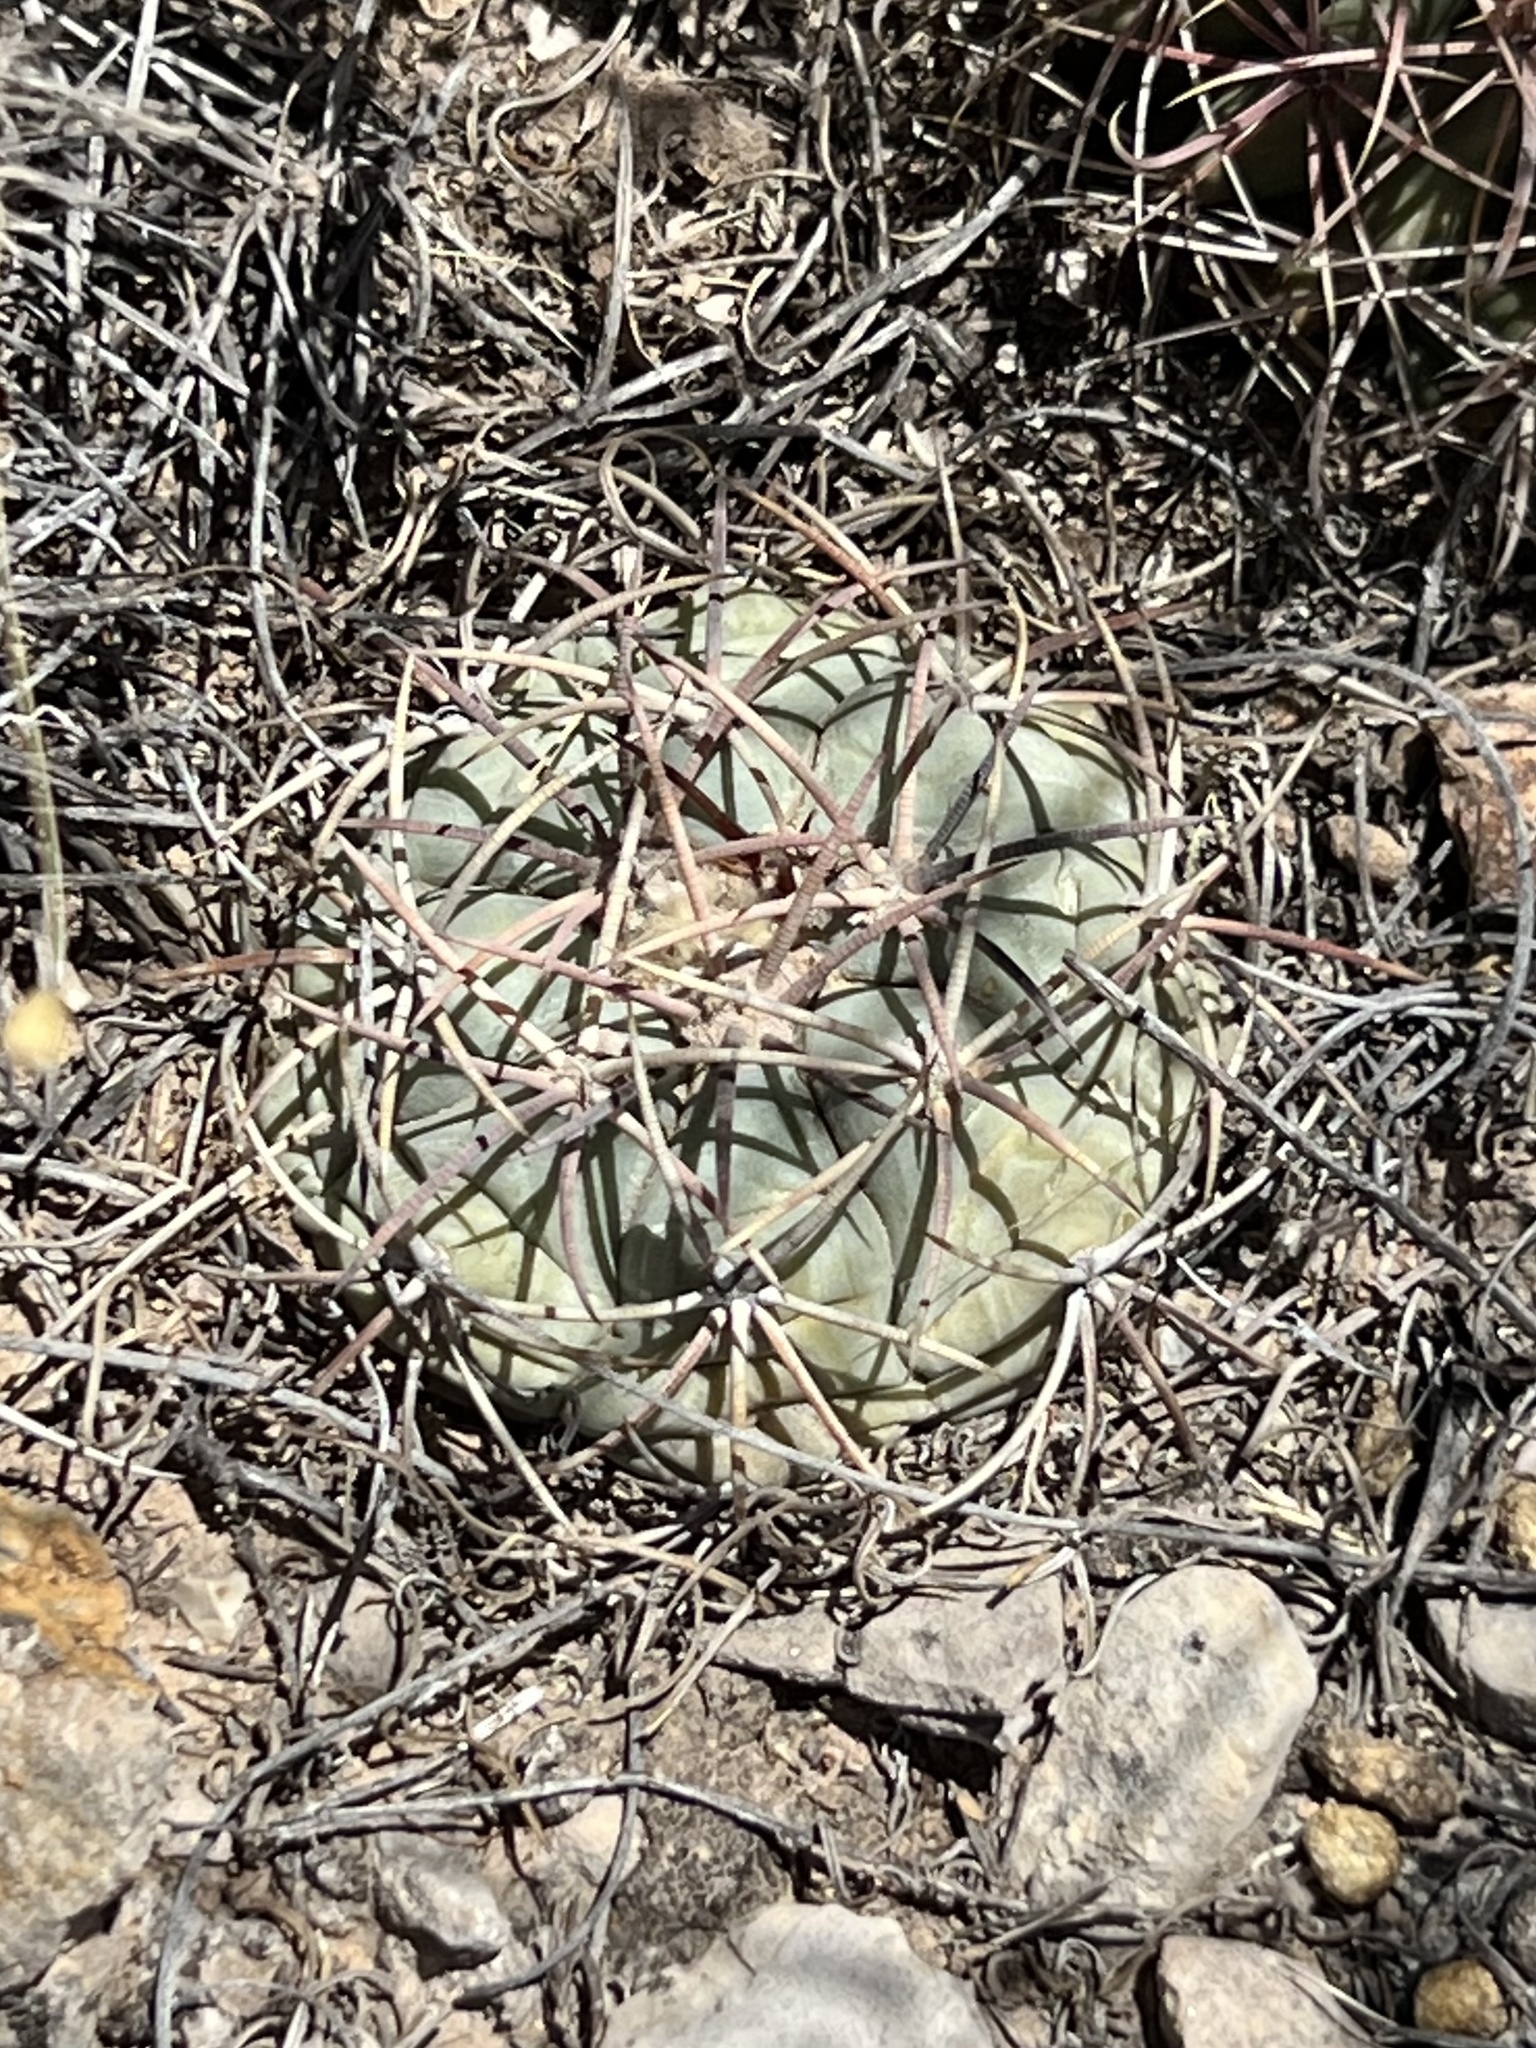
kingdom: Plantae
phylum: Tracheophyta
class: Magnoliopsida
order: Caryophyllales
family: Cactaceae
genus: Echinocactus
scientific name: Echinocactus horizonthalonius
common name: Devilshead
